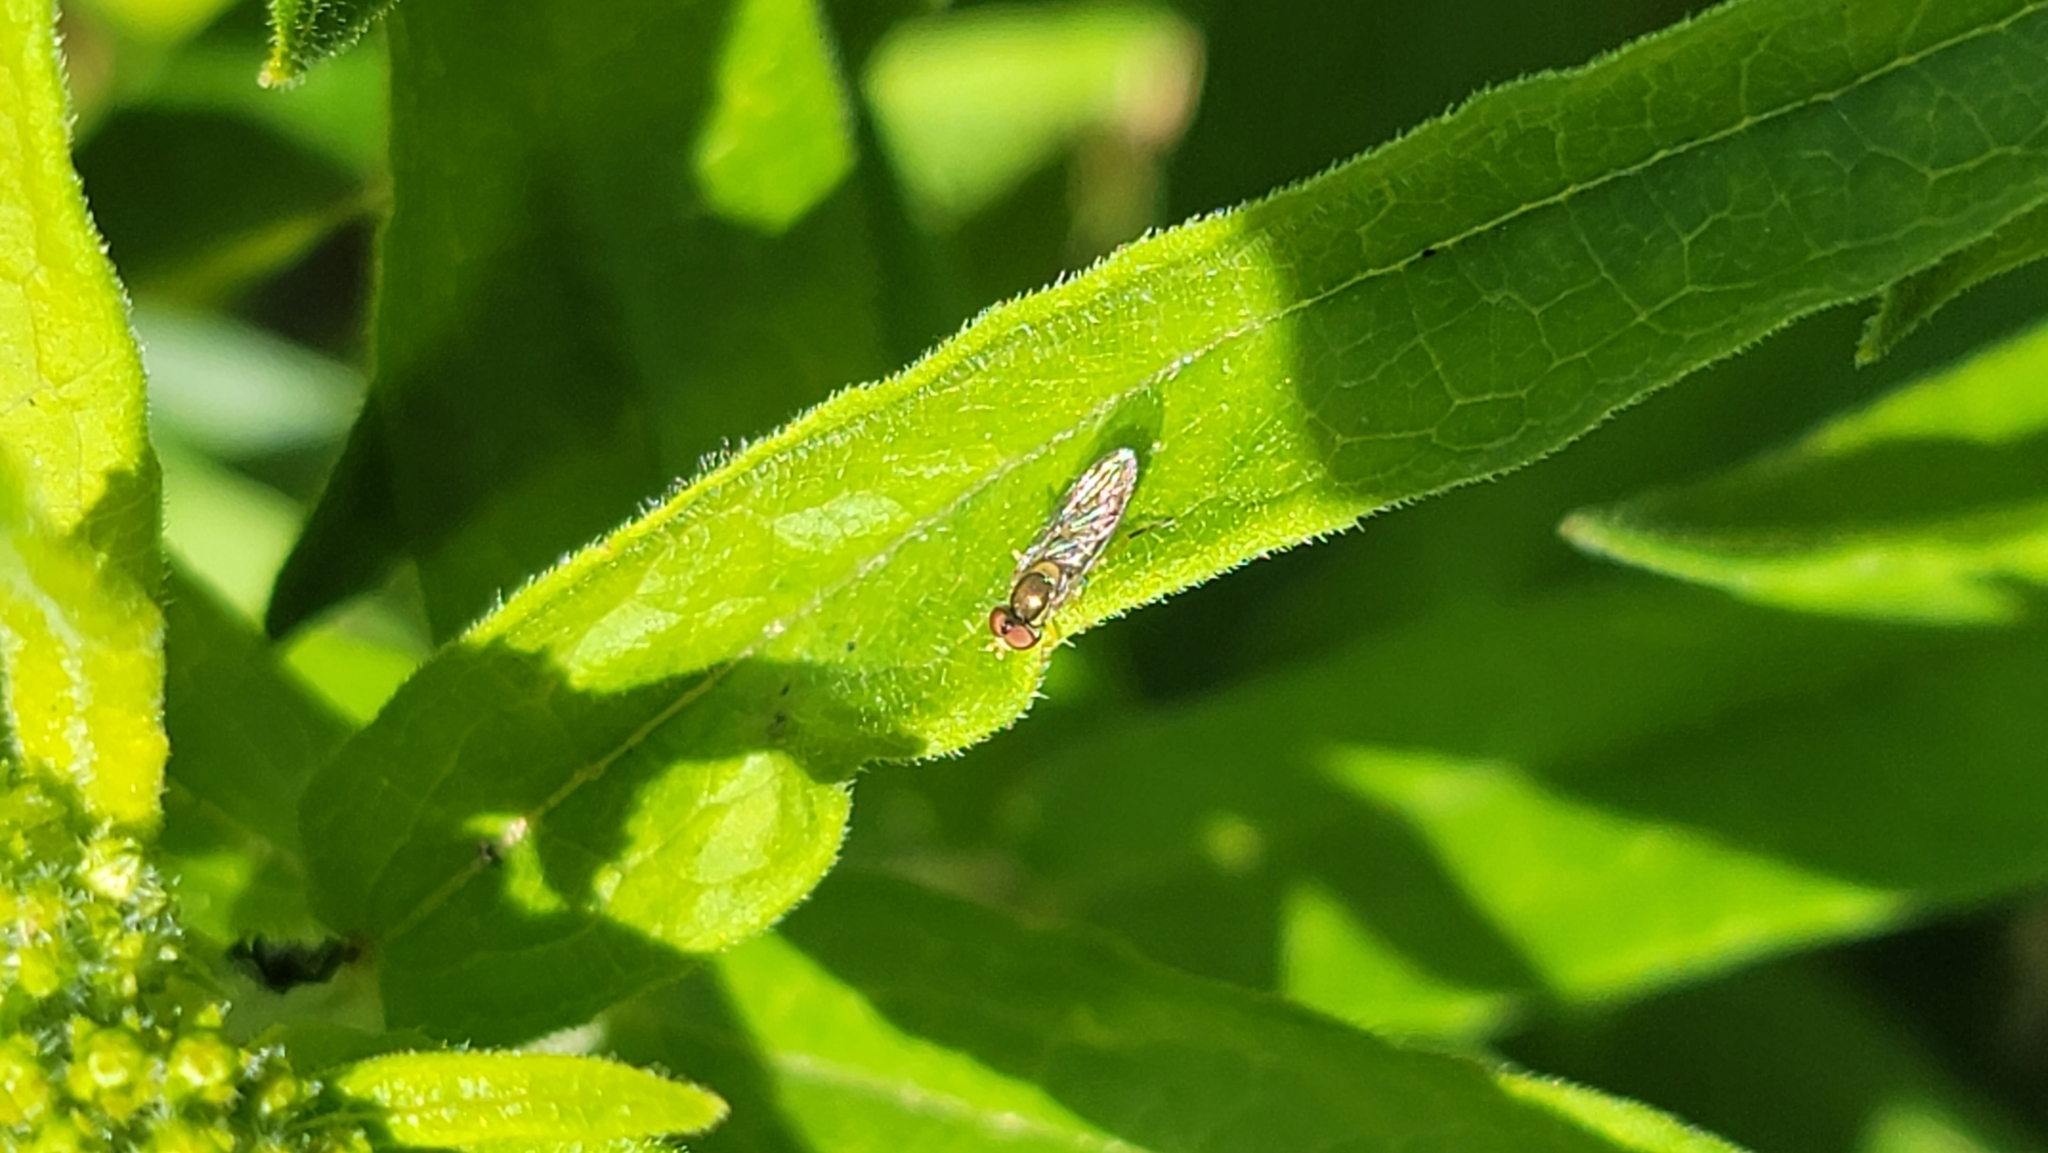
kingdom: Animalia
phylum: Arthropoda
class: Insecta
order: Diptera
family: Syrphidae
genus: Toxomerus
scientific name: Toxomerus marginatus
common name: Syrphid fly
